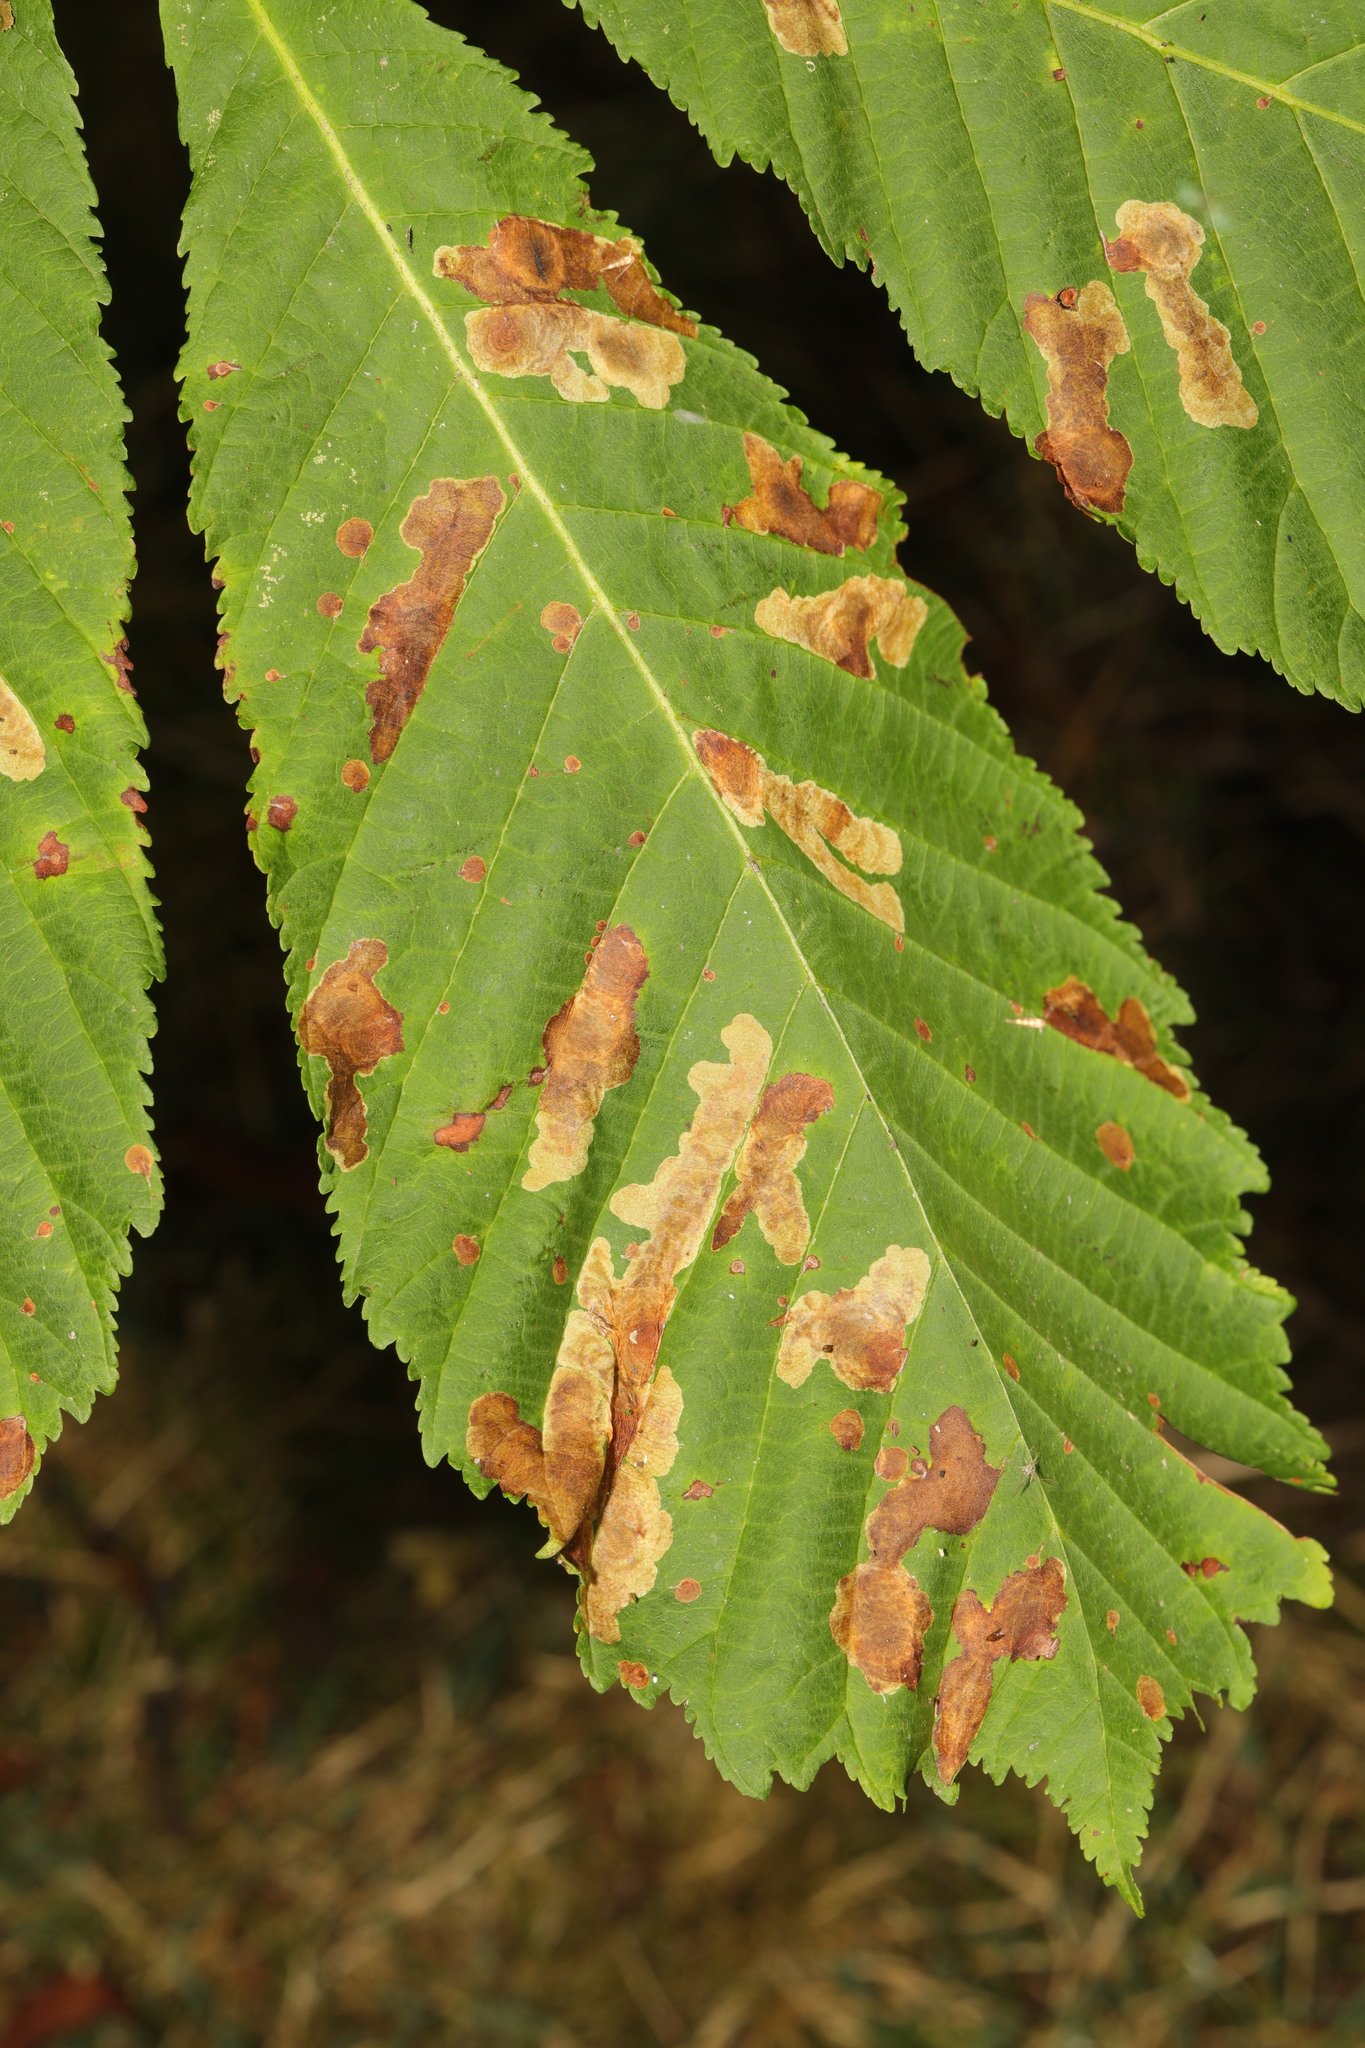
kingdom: Animalia
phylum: Arthropoda
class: Insecta
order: Lepidoptera
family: Gracillariidae
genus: Cameraria
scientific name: Cameraria ohridella
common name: Horse-chestnut leaf-miner
